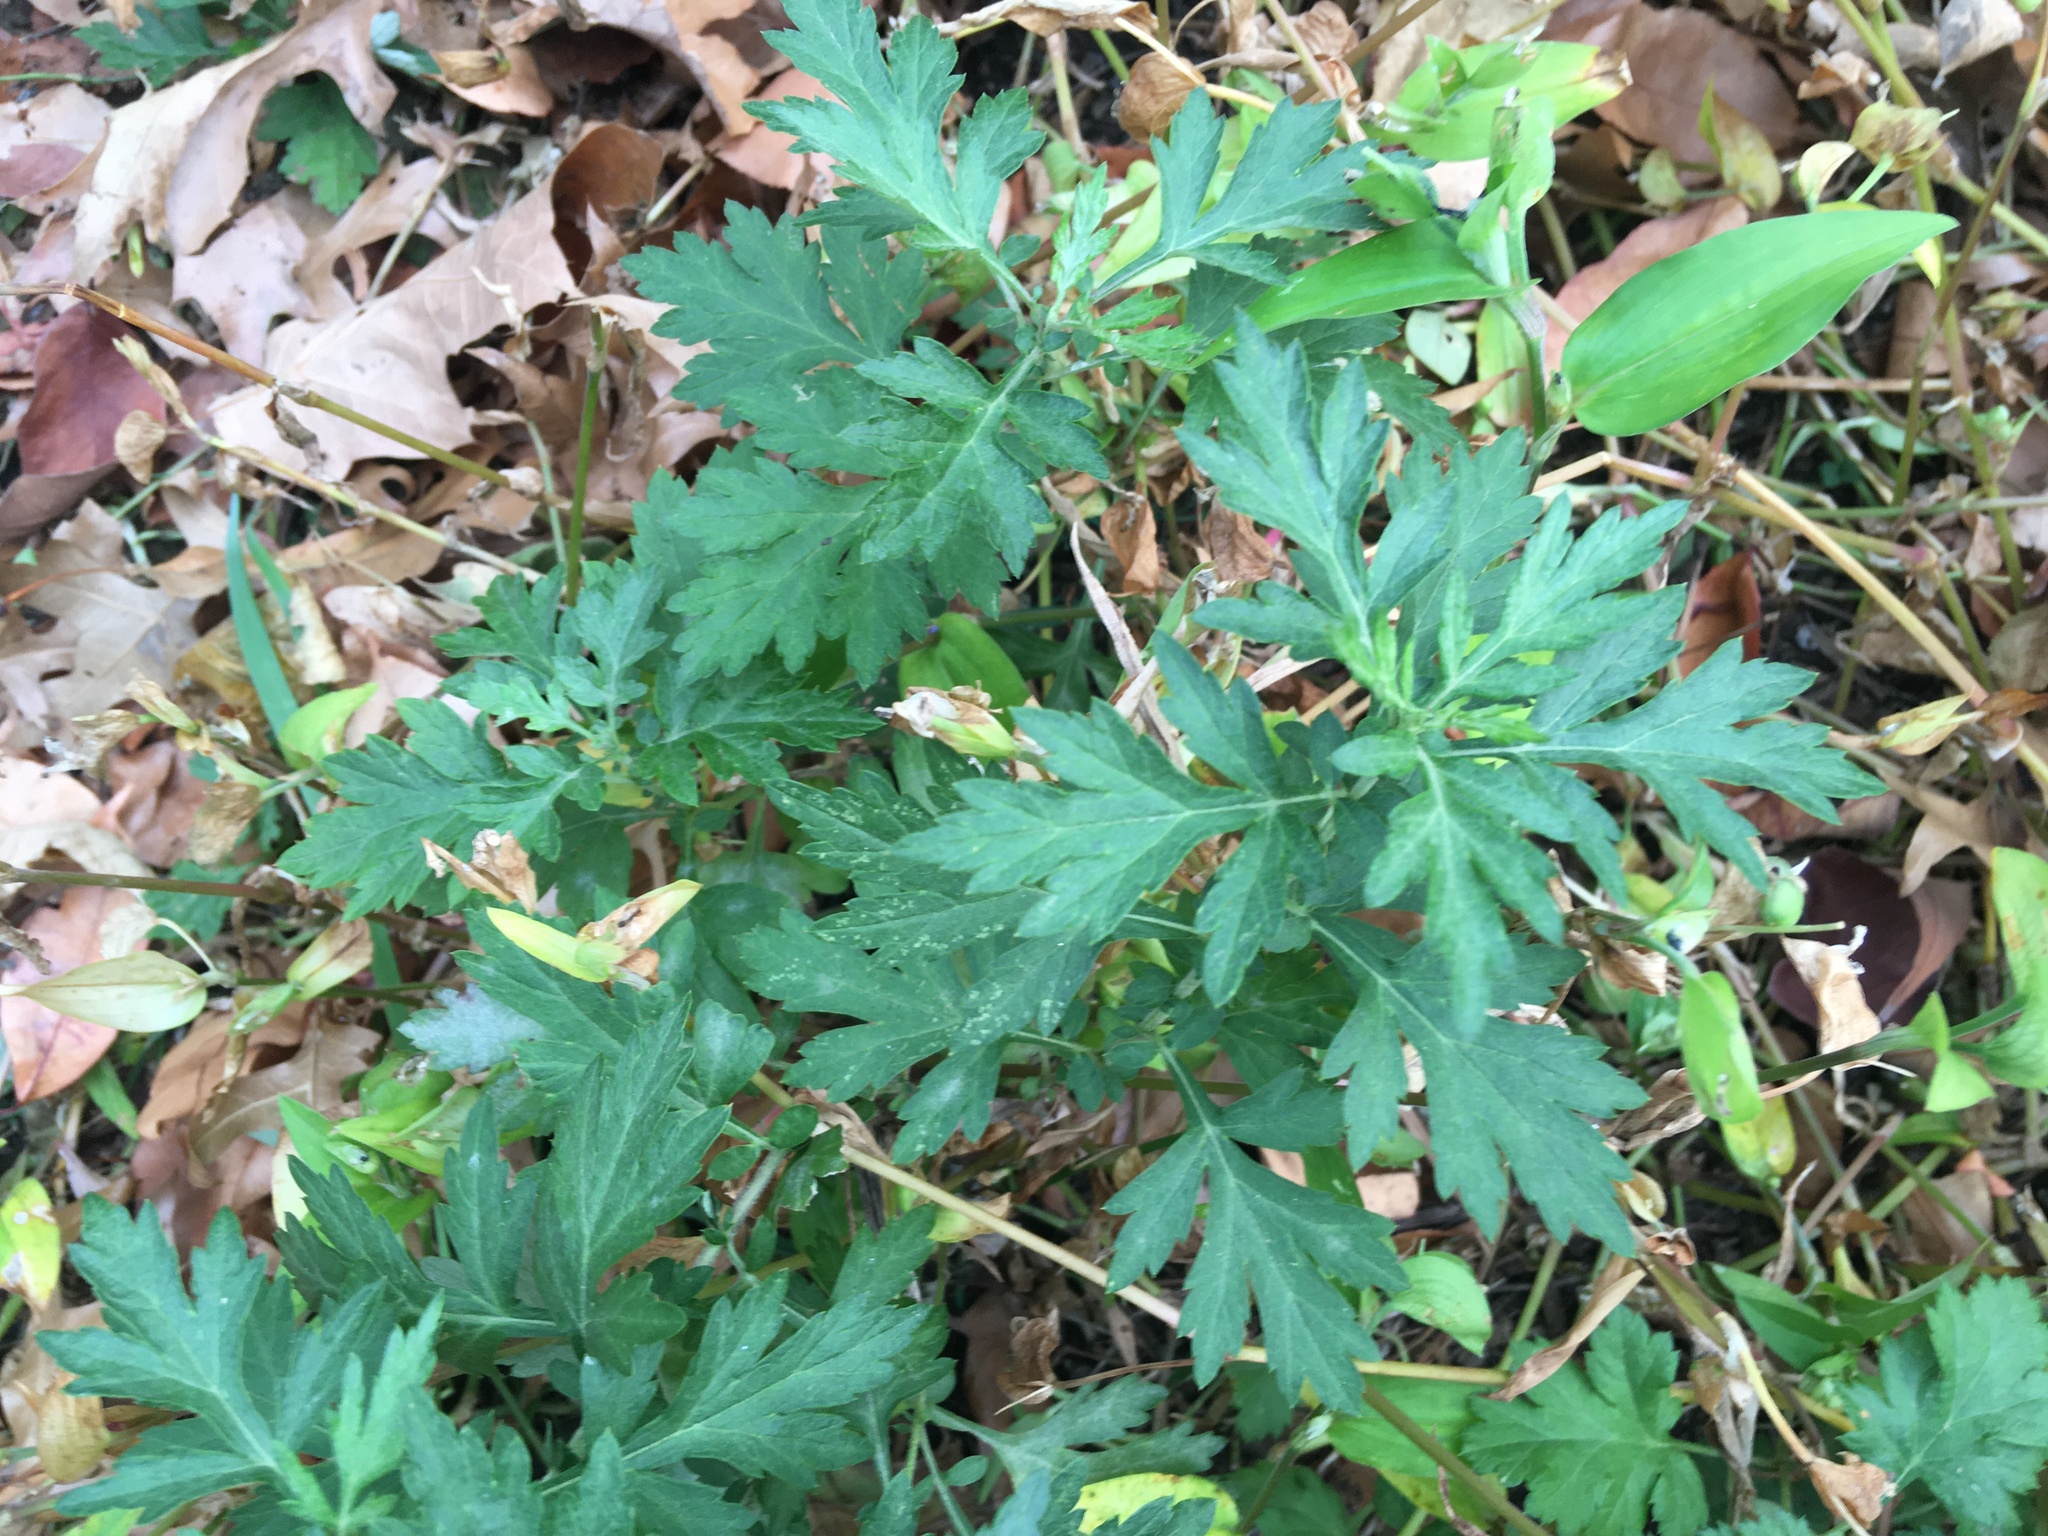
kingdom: Plantae
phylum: Tracheophyta
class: Magnoliopsida
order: Asterales
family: Asteraceae
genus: Artemisia
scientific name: Artemisia vulgaris
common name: Mugwort
